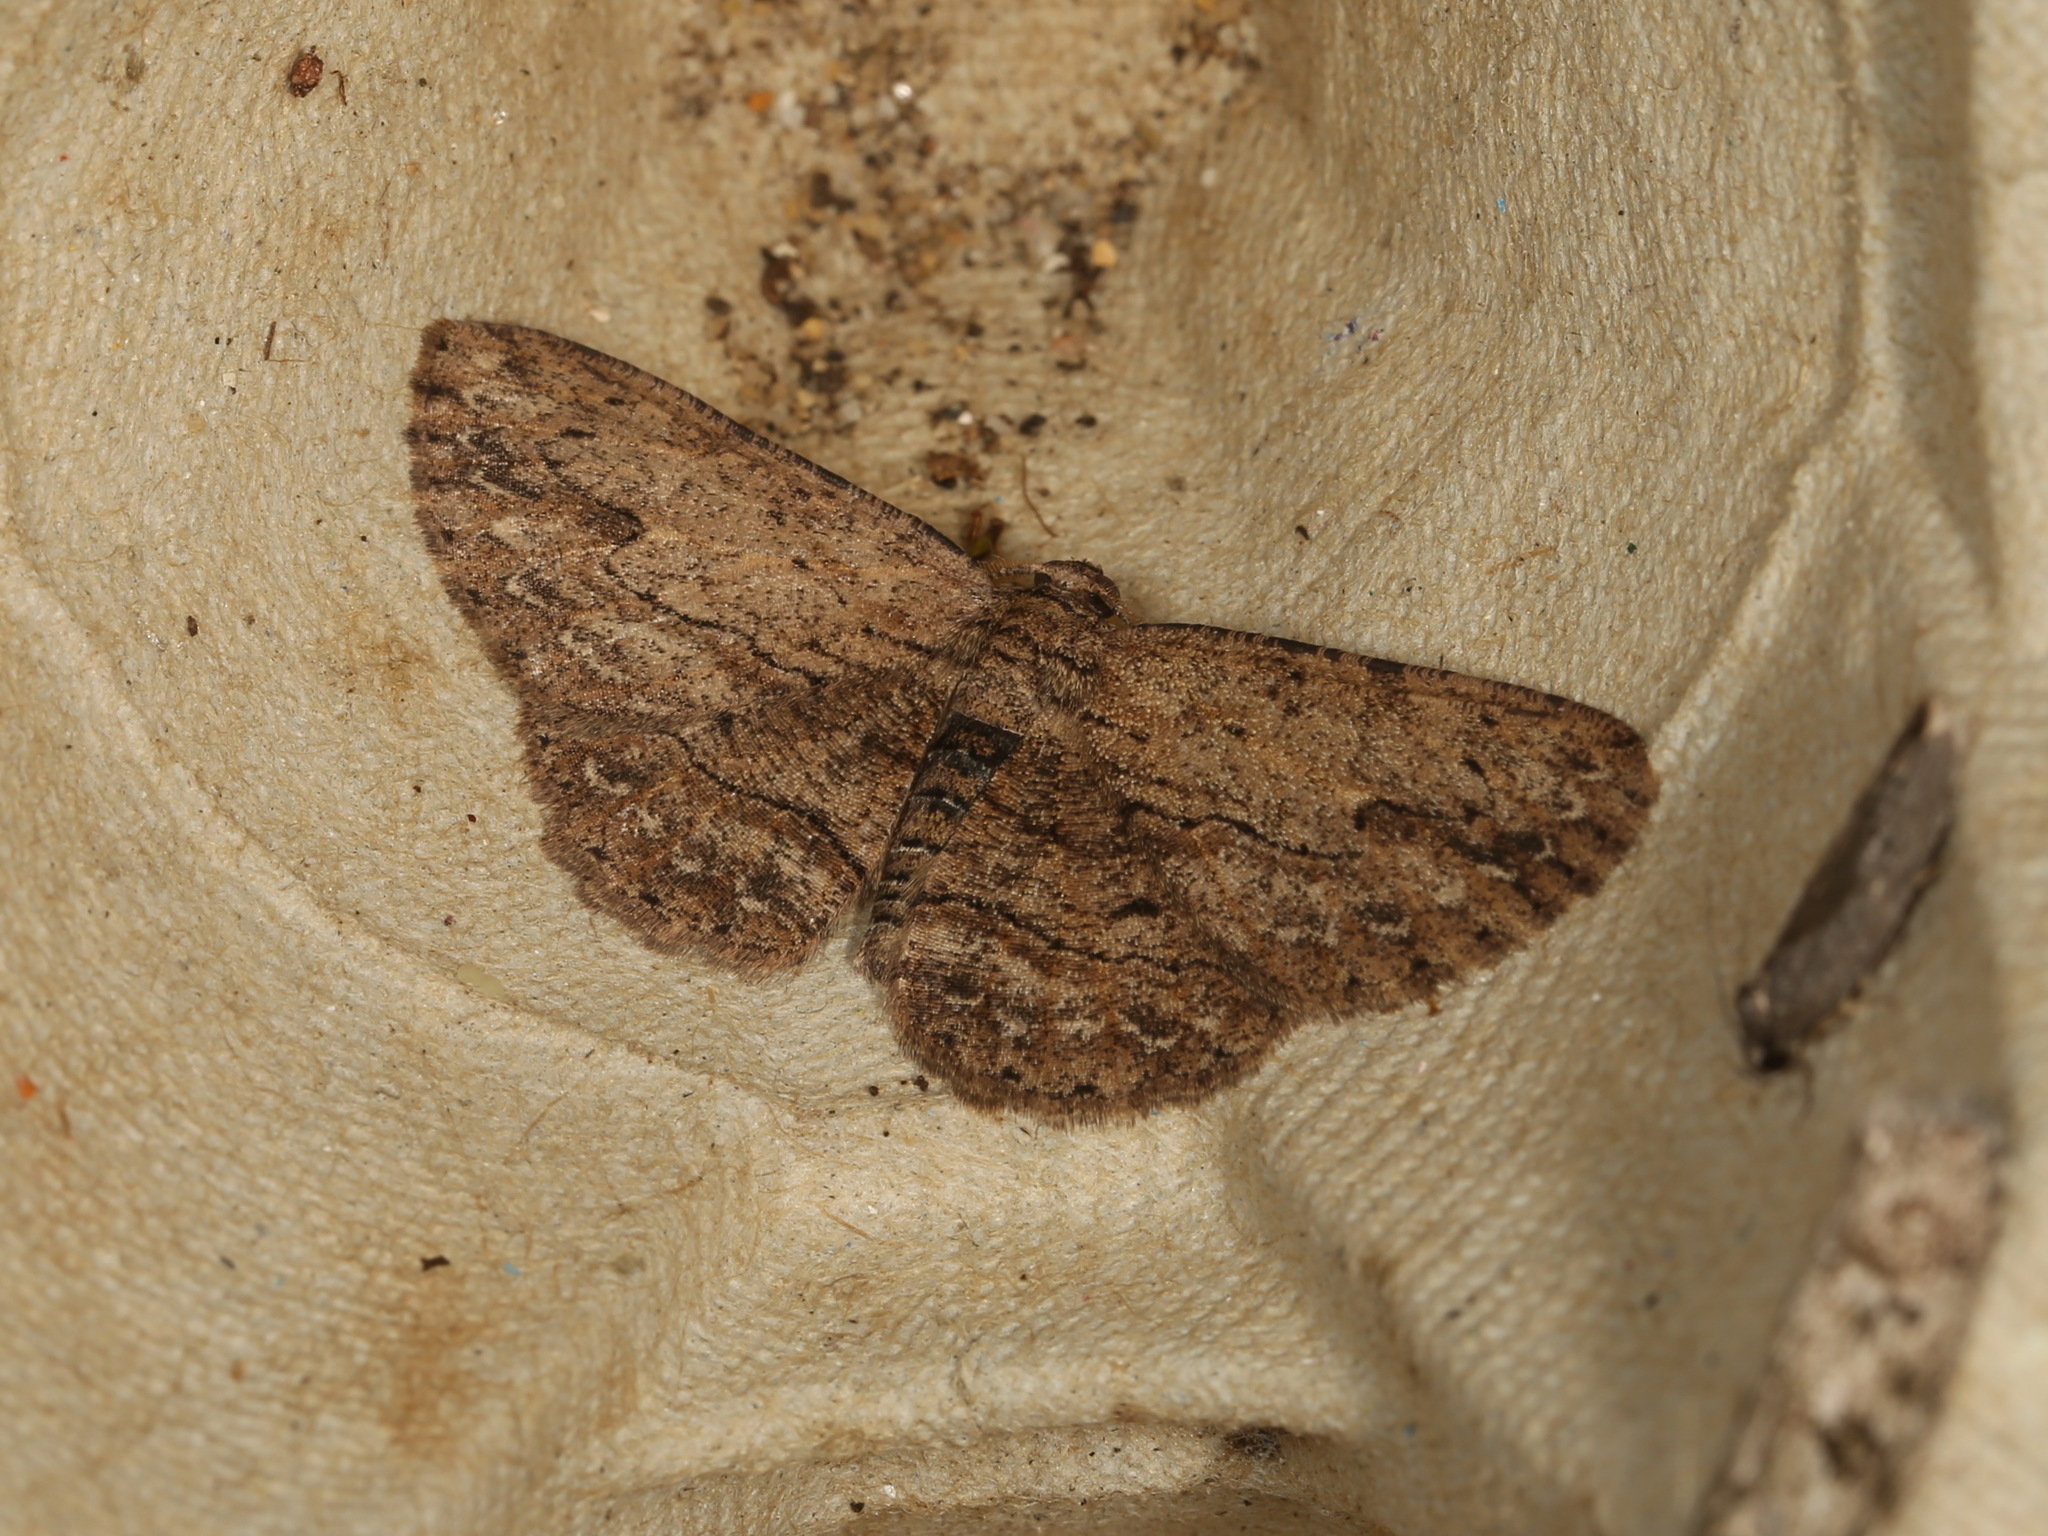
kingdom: Animalia
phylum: Arthropoda
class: Insecta
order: Lepidoptera
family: Geometridae
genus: Ectropis
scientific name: Ectropis excursaria
